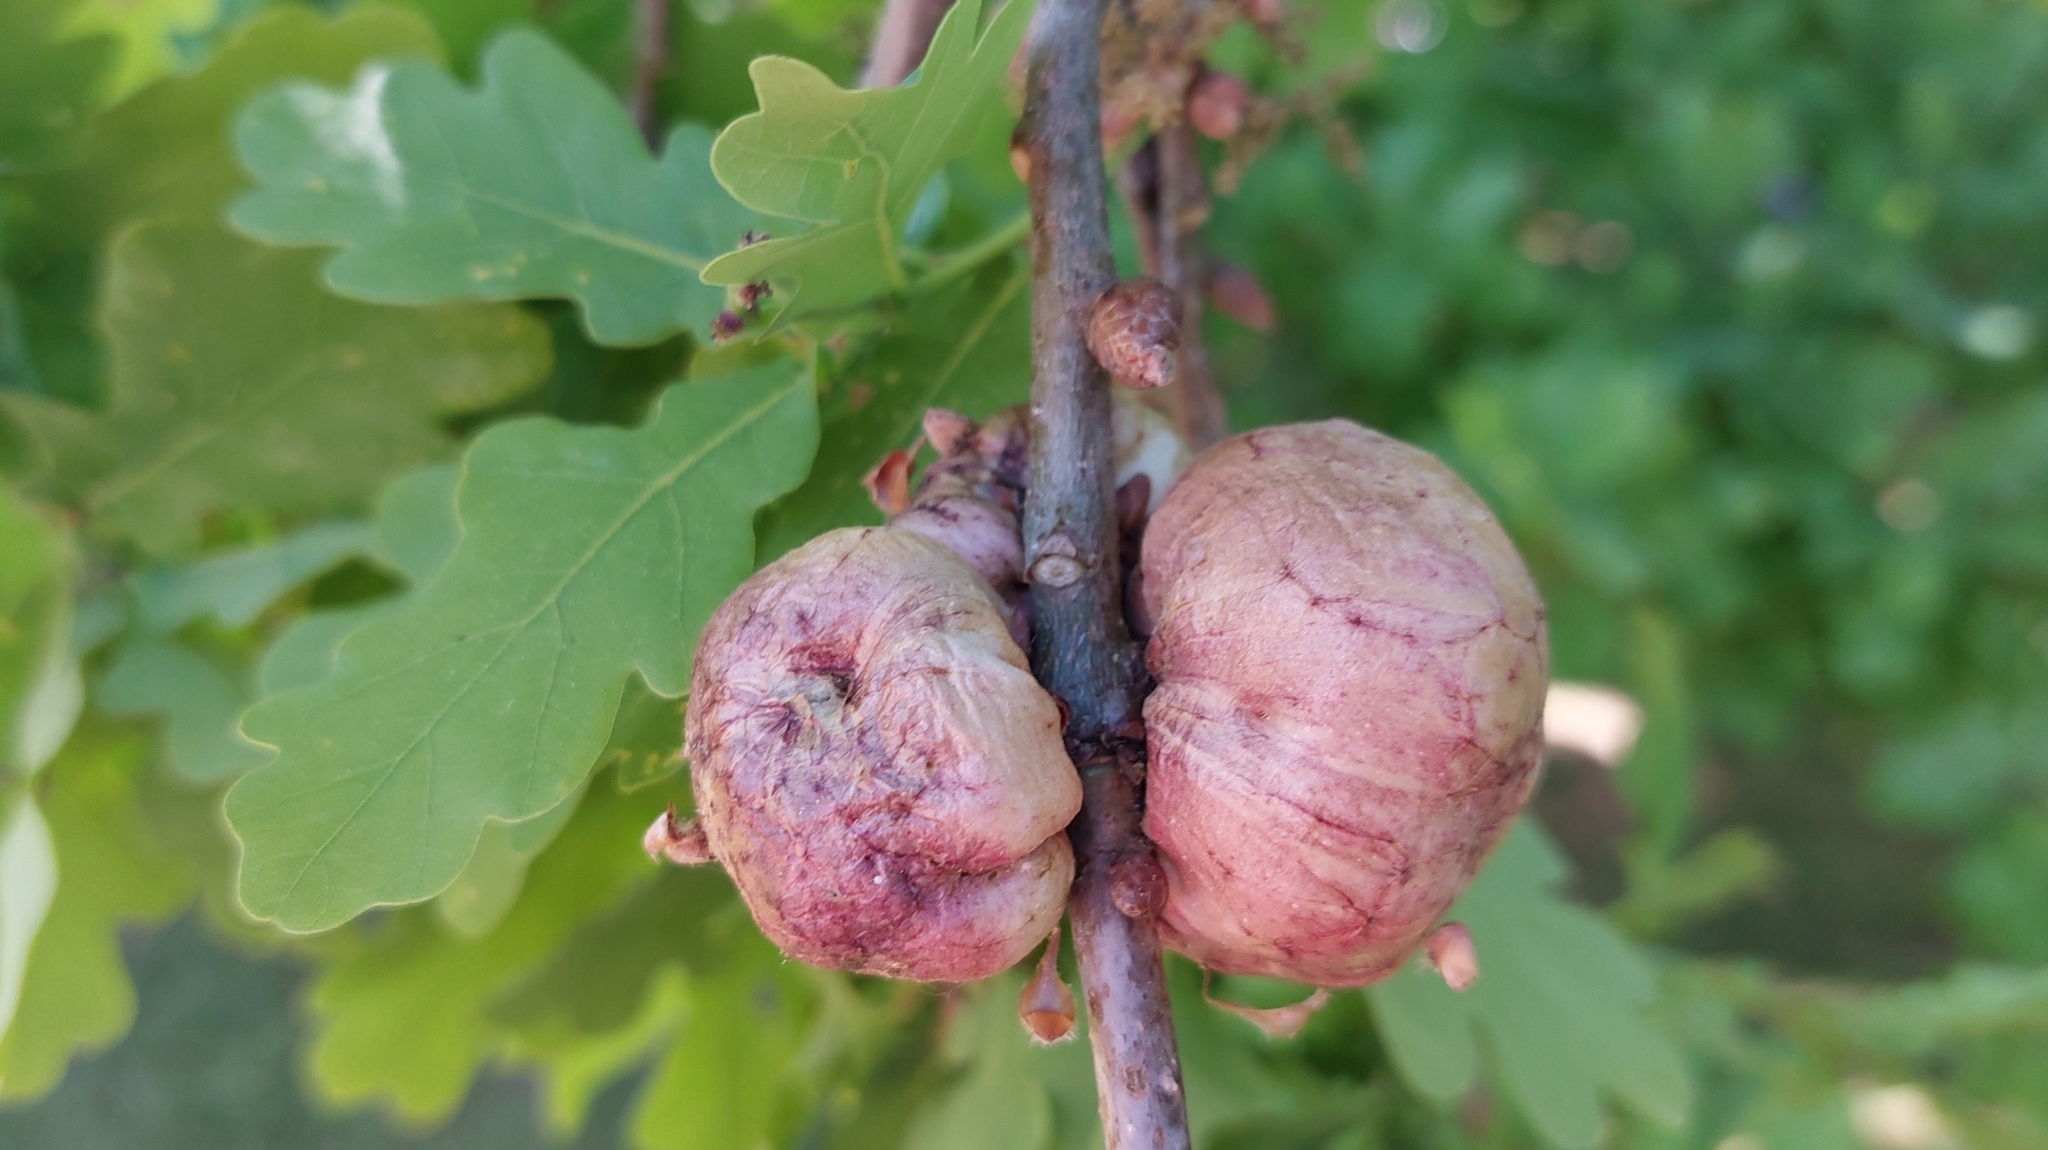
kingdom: Animalia
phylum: Arthropoda
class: Insecta
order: Hymenoptera
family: Cynipidae
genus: Biorhiza
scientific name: Biorhiza pallida
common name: Oak apple
